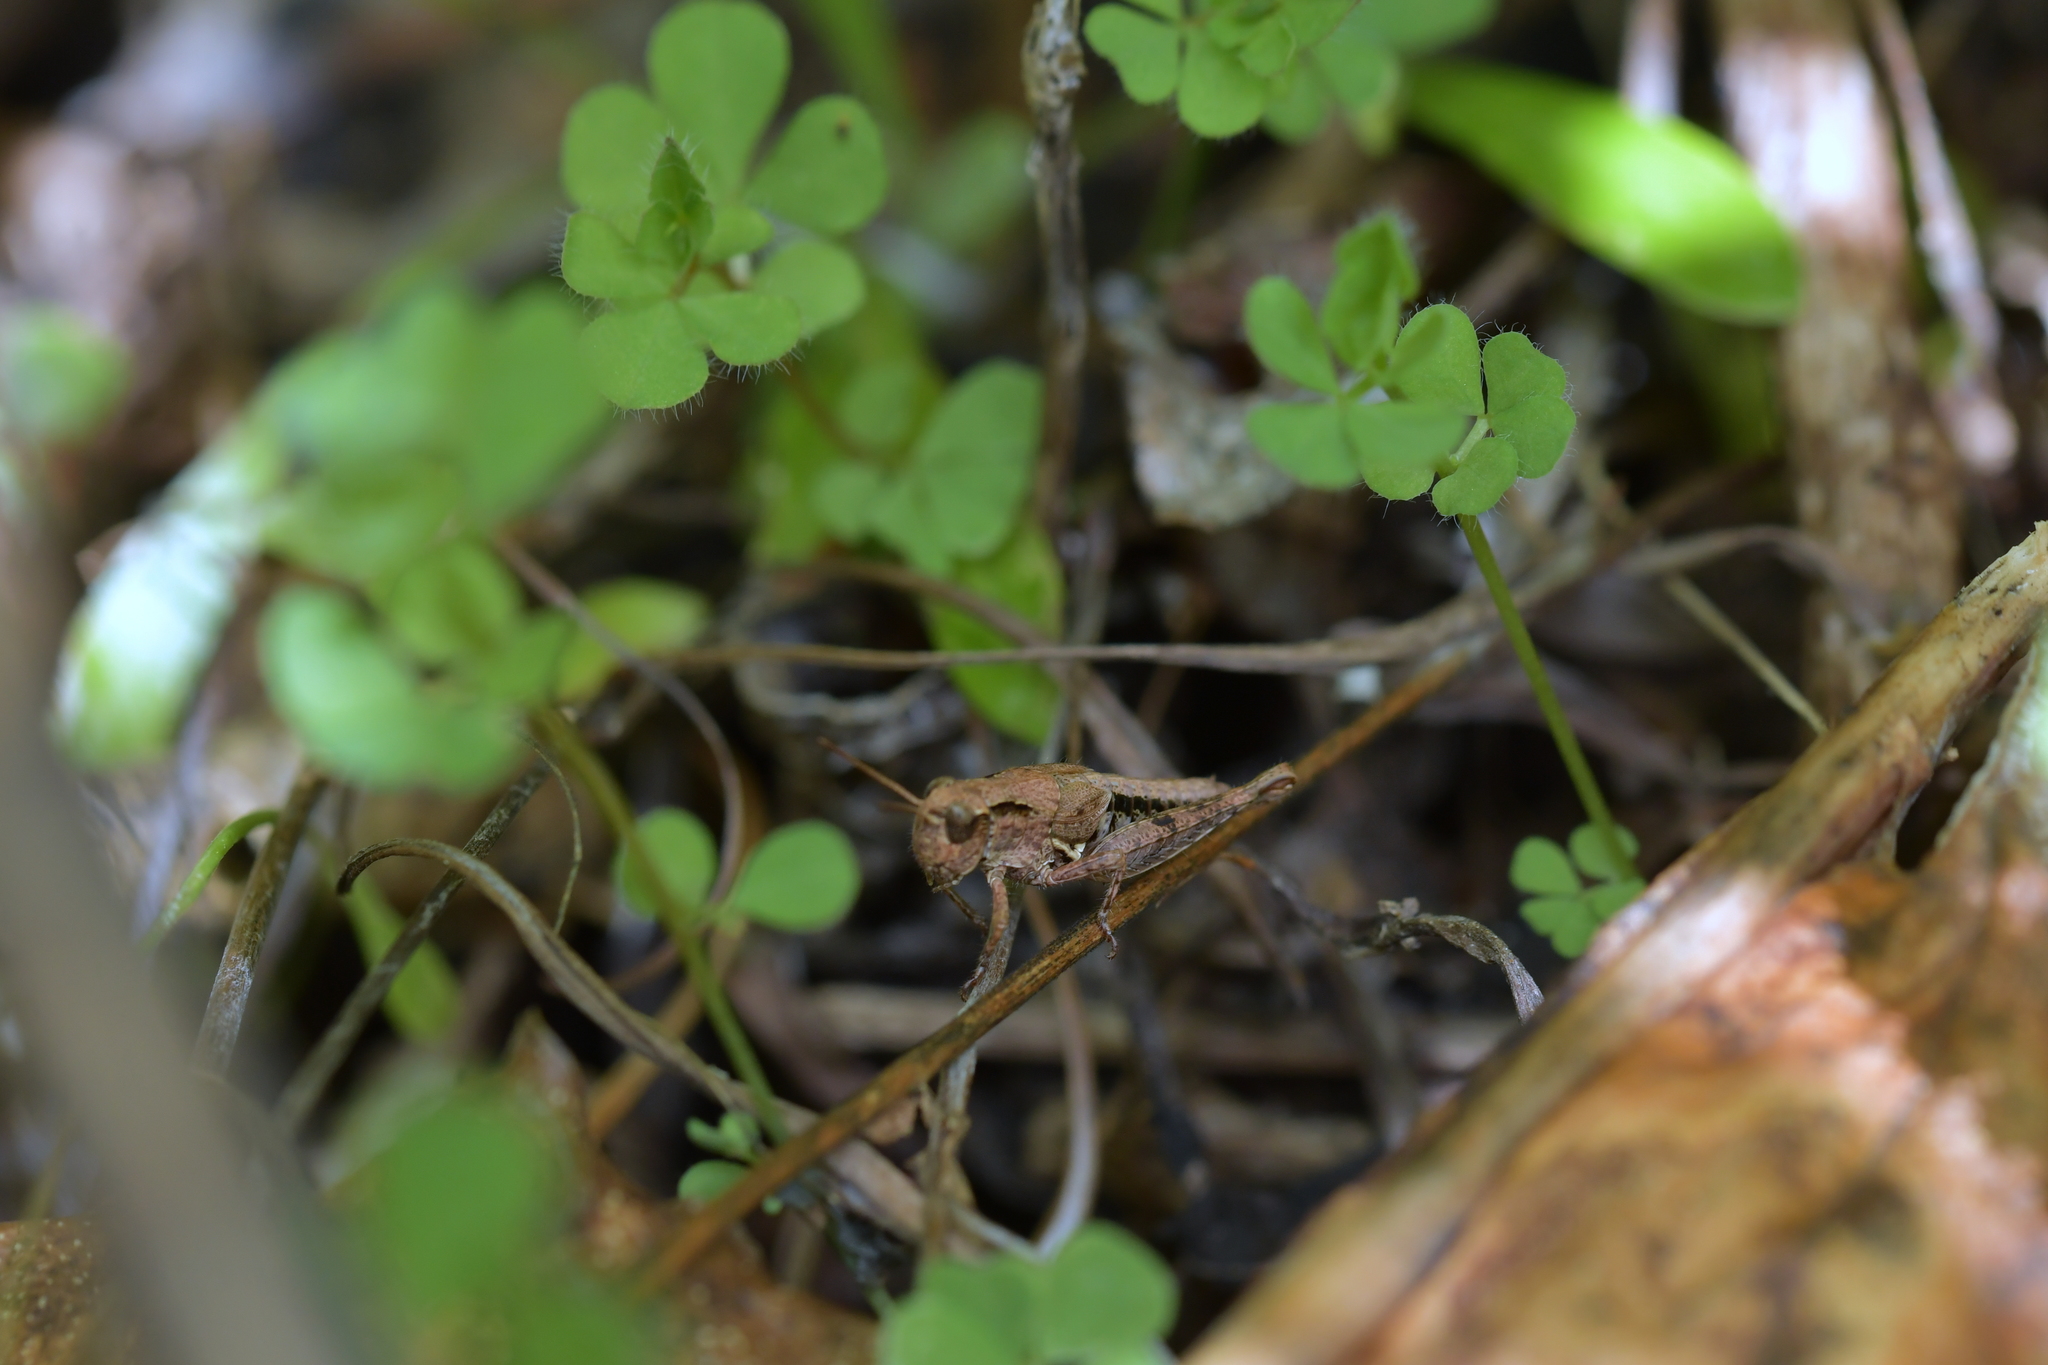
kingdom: Animalia
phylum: Arthropoda
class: Insecta
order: Orthoptera
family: Acrididae
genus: Phaulacridium
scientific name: Phaulacridium marginale
